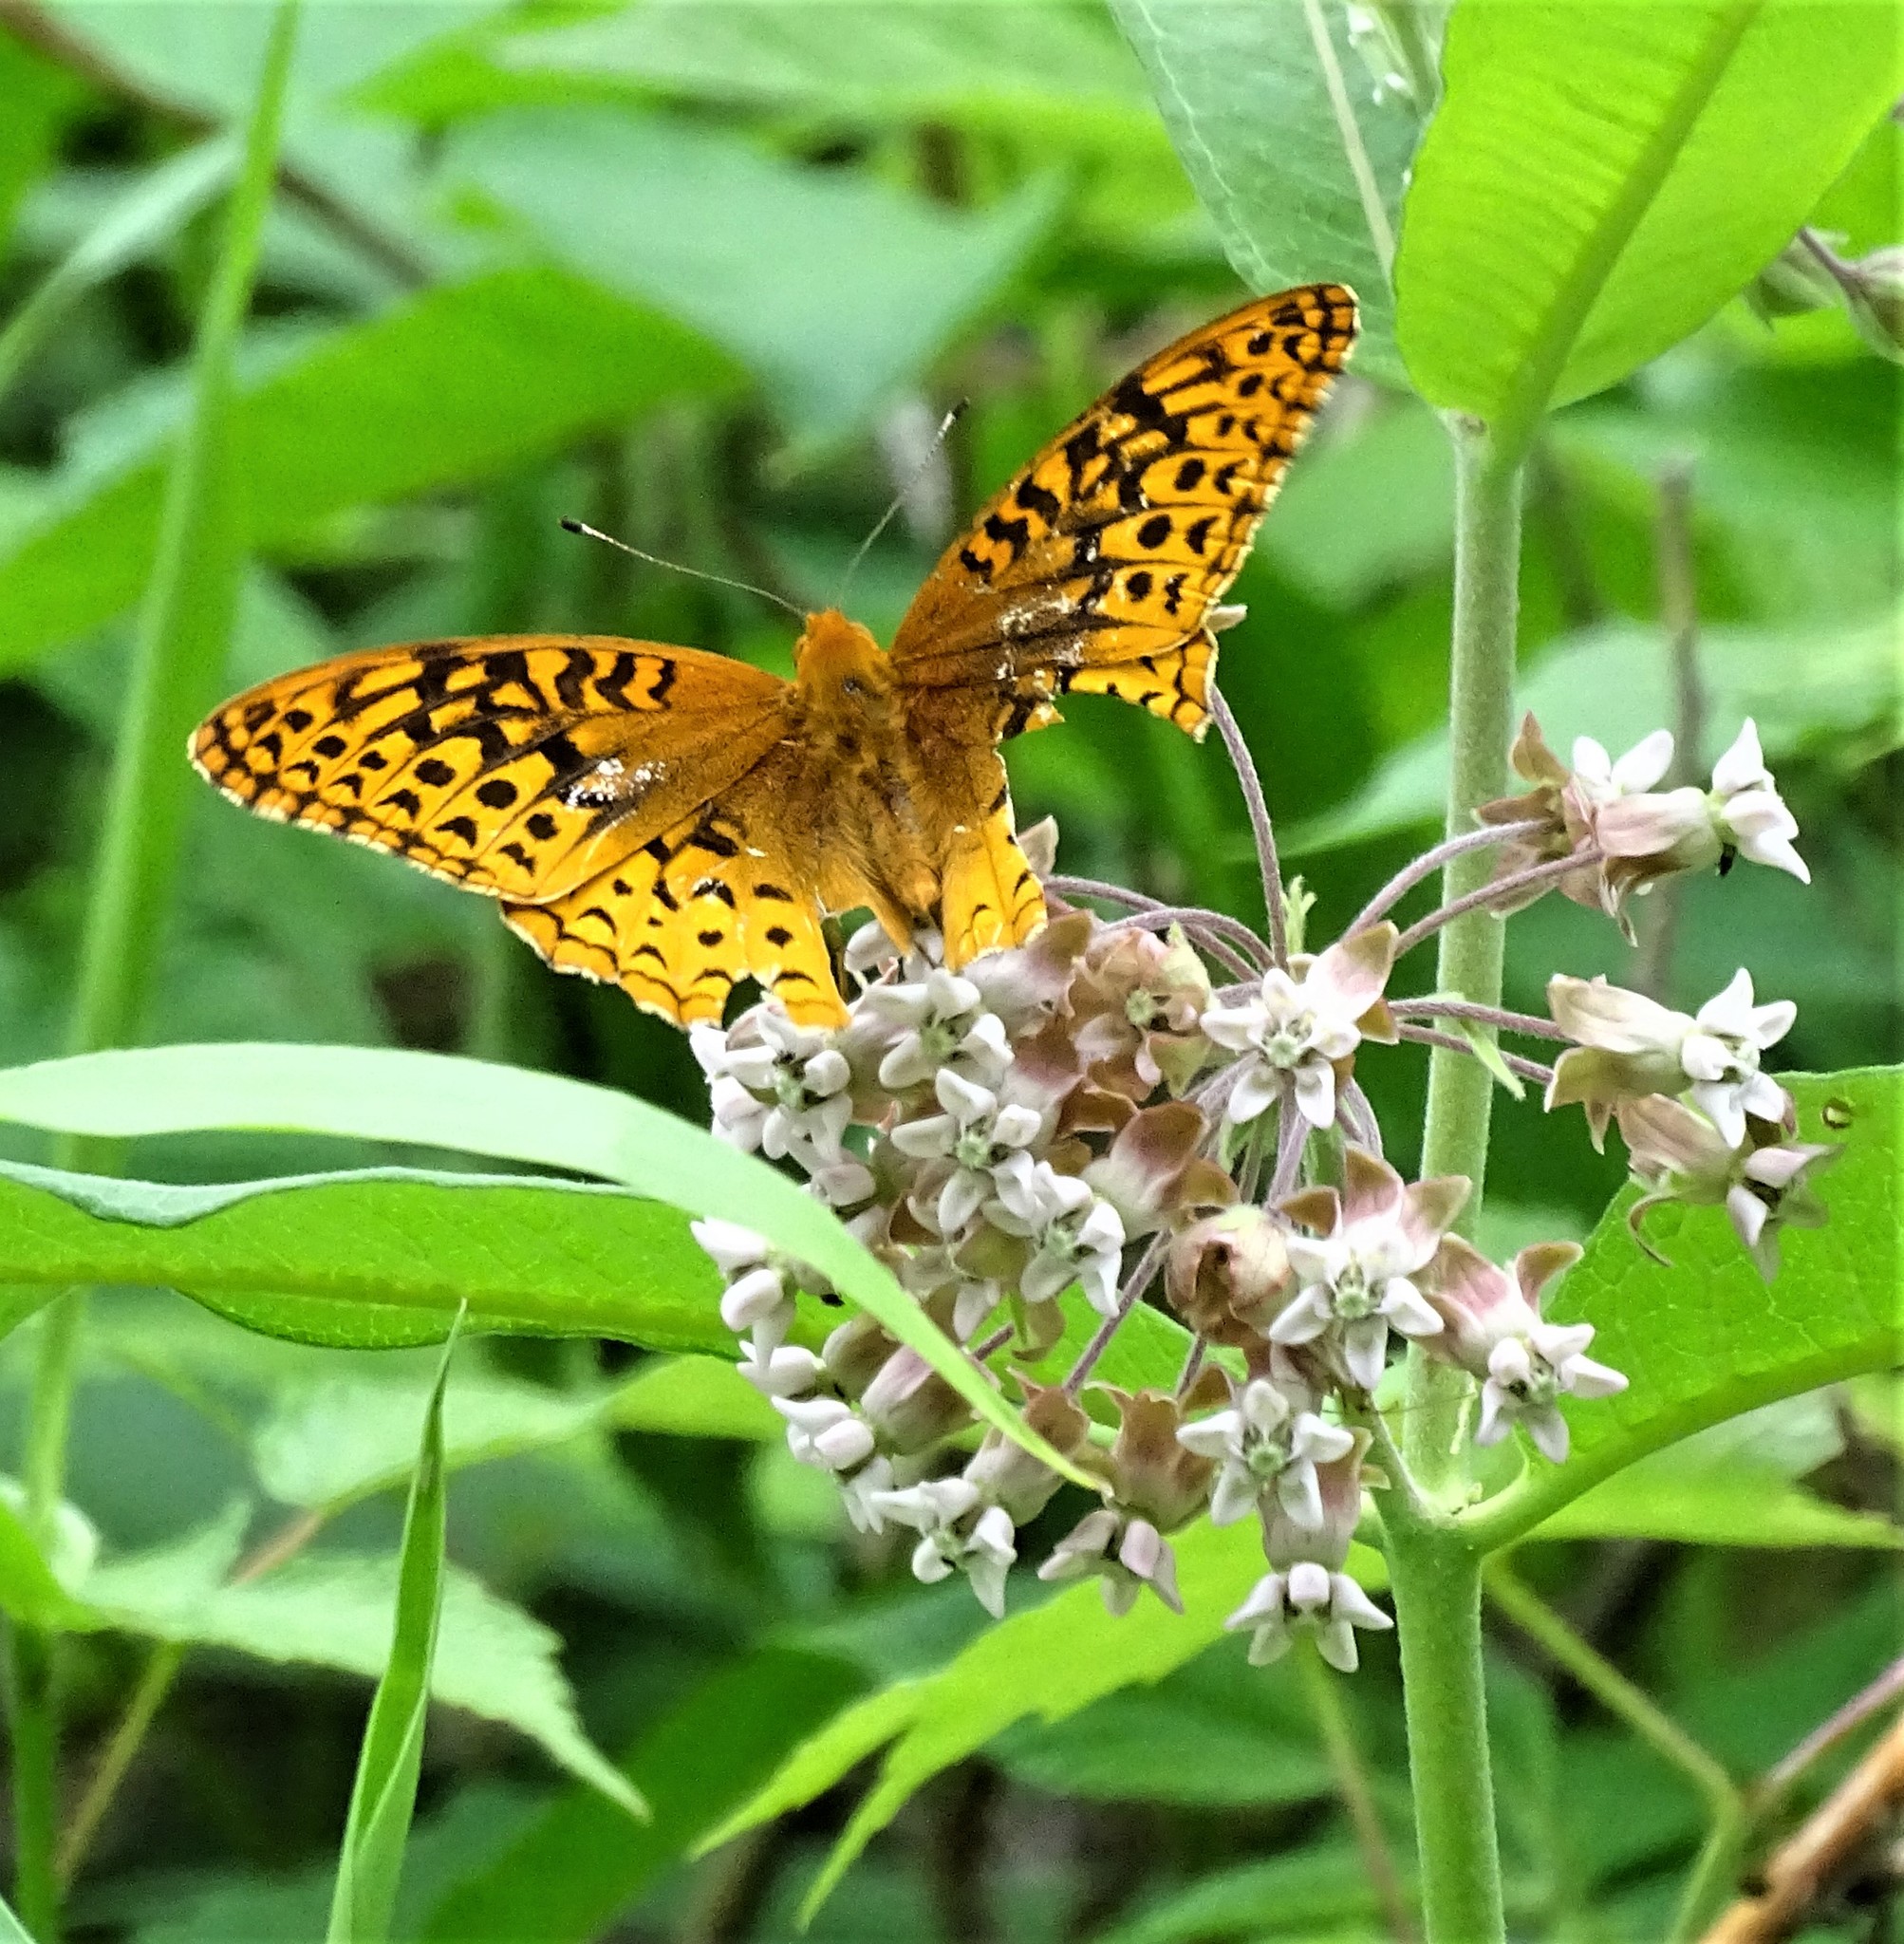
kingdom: Animalia
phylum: Arthropoda
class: Insecta
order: Lepidoptera
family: Nymphalidae
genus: Speyeria
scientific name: Speyeria cybele
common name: Great spangled fritillary
